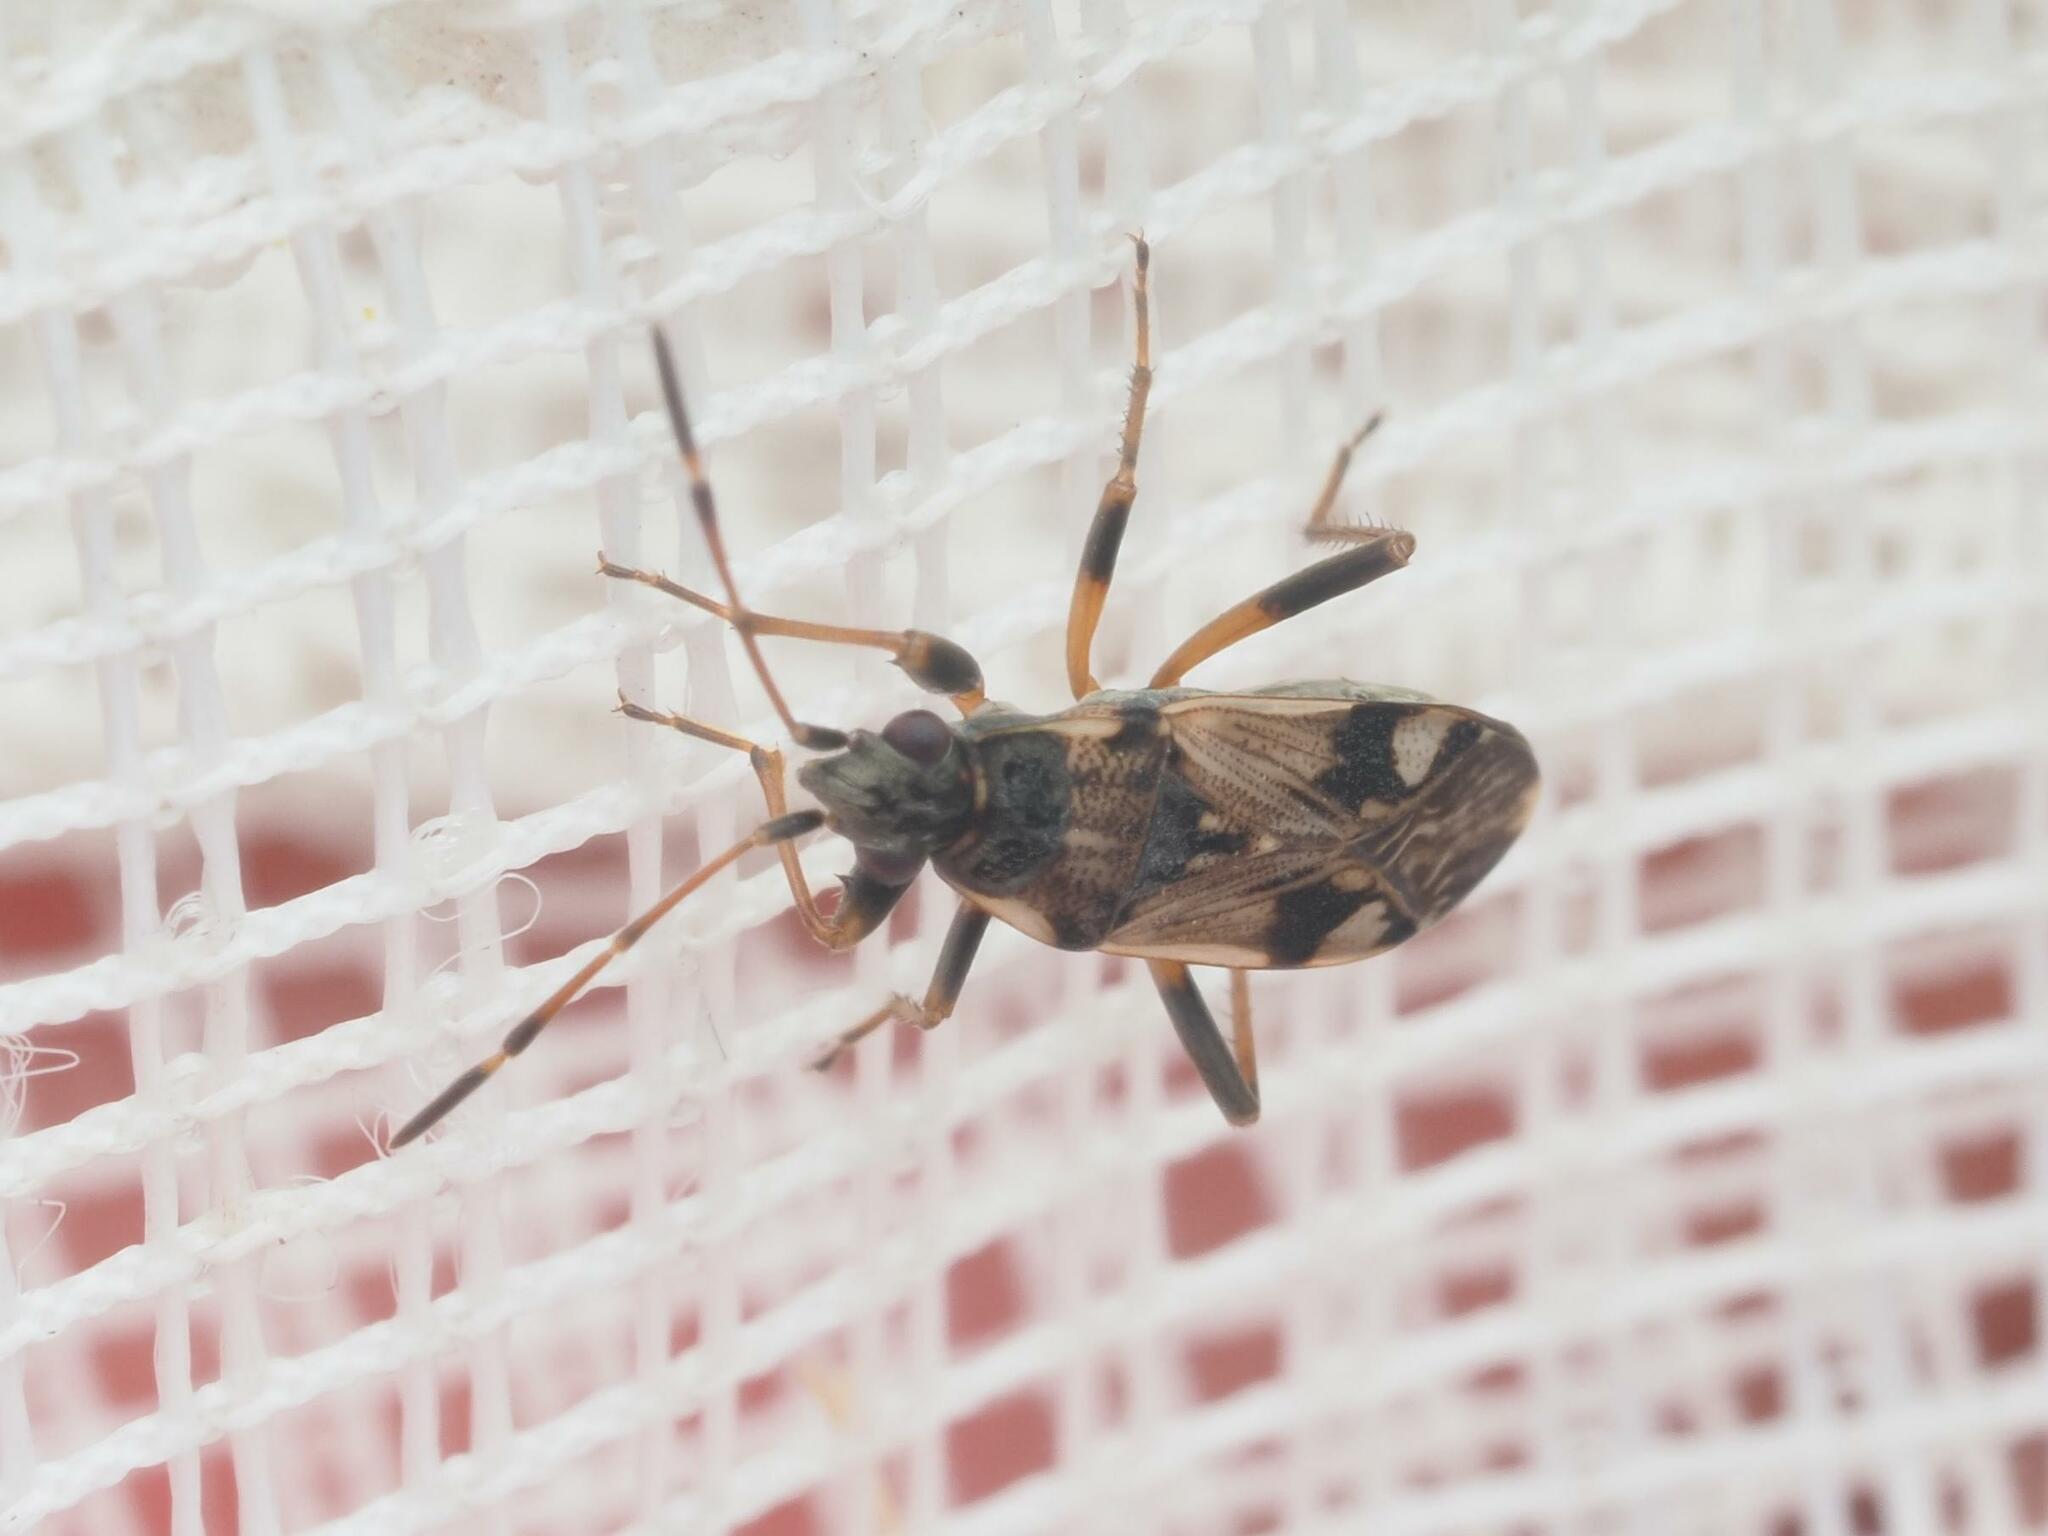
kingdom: Animalia
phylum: Arthropoda
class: Insecta
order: Hemiptera
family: Rhyparochromidae
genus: Beosus
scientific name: Beosus maritimus
